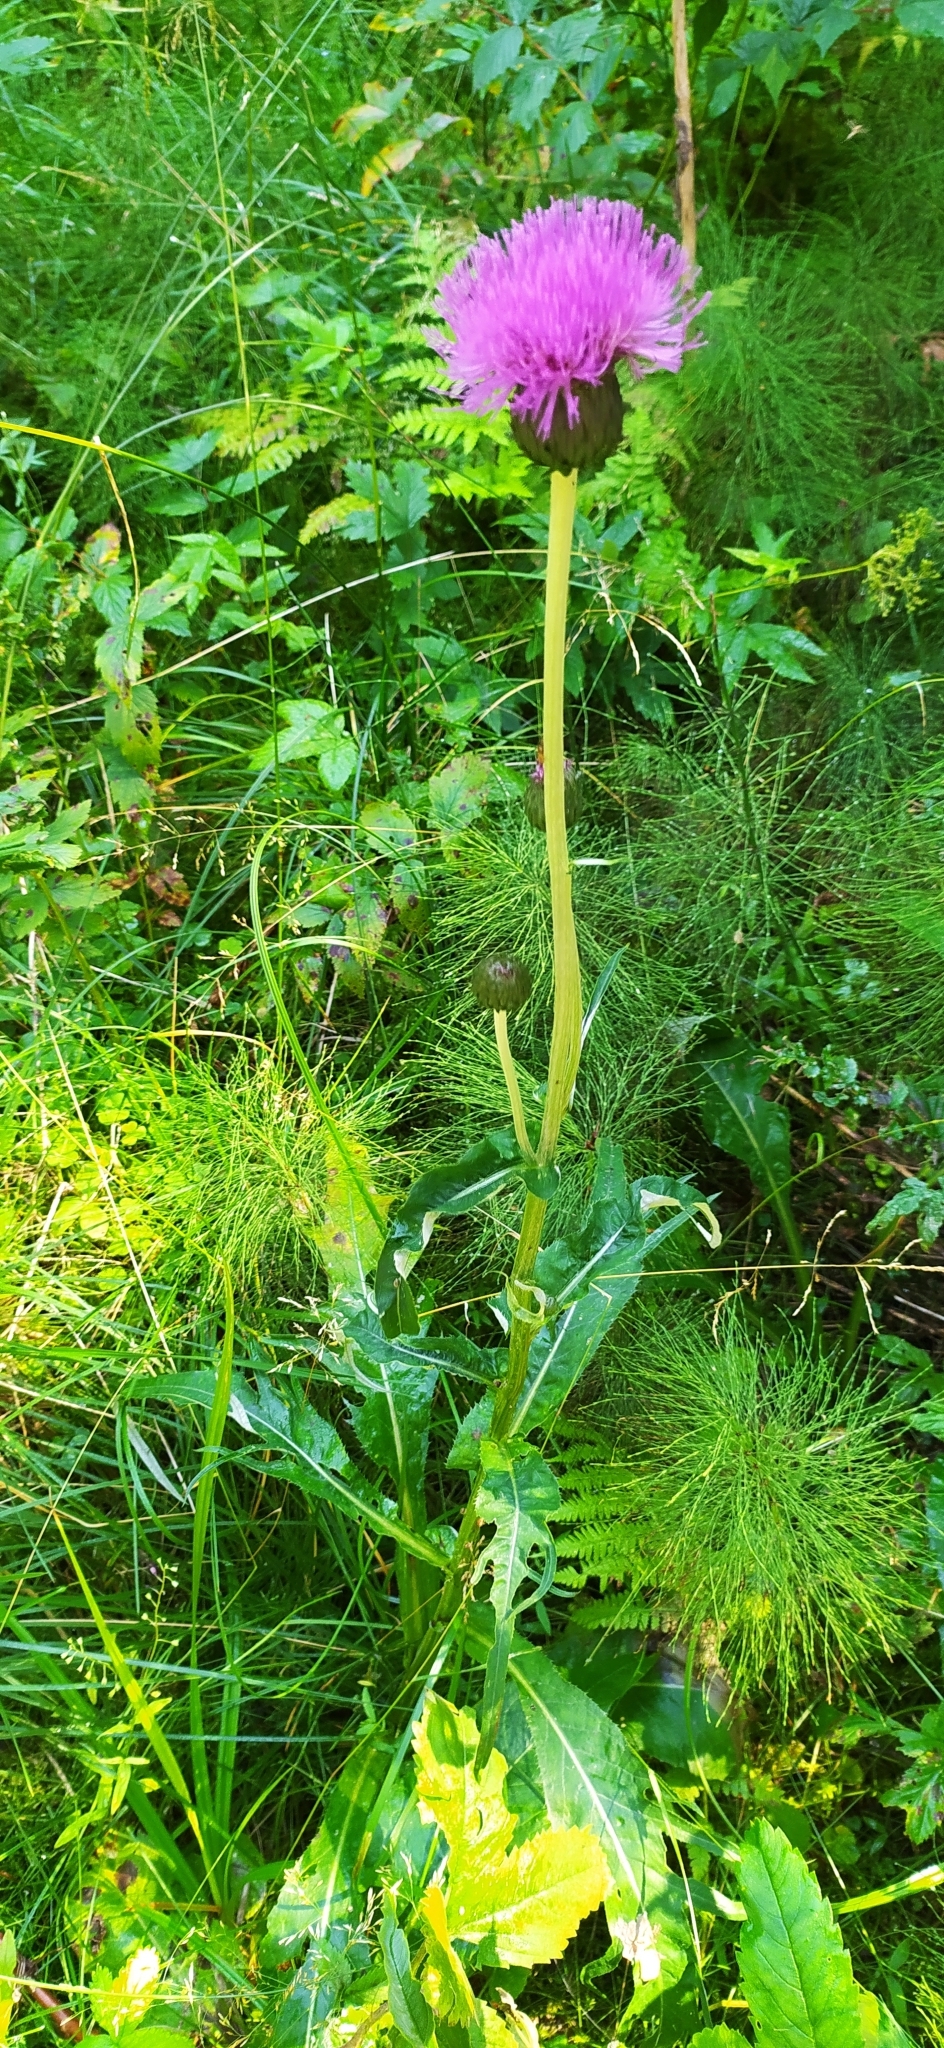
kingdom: Plantae
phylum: Tracheophyta
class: Magnoliopsida
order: Asterales
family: Asteraceae
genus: Cirsium
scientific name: Cirsium heterophyllum
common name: Melancholy thistle
